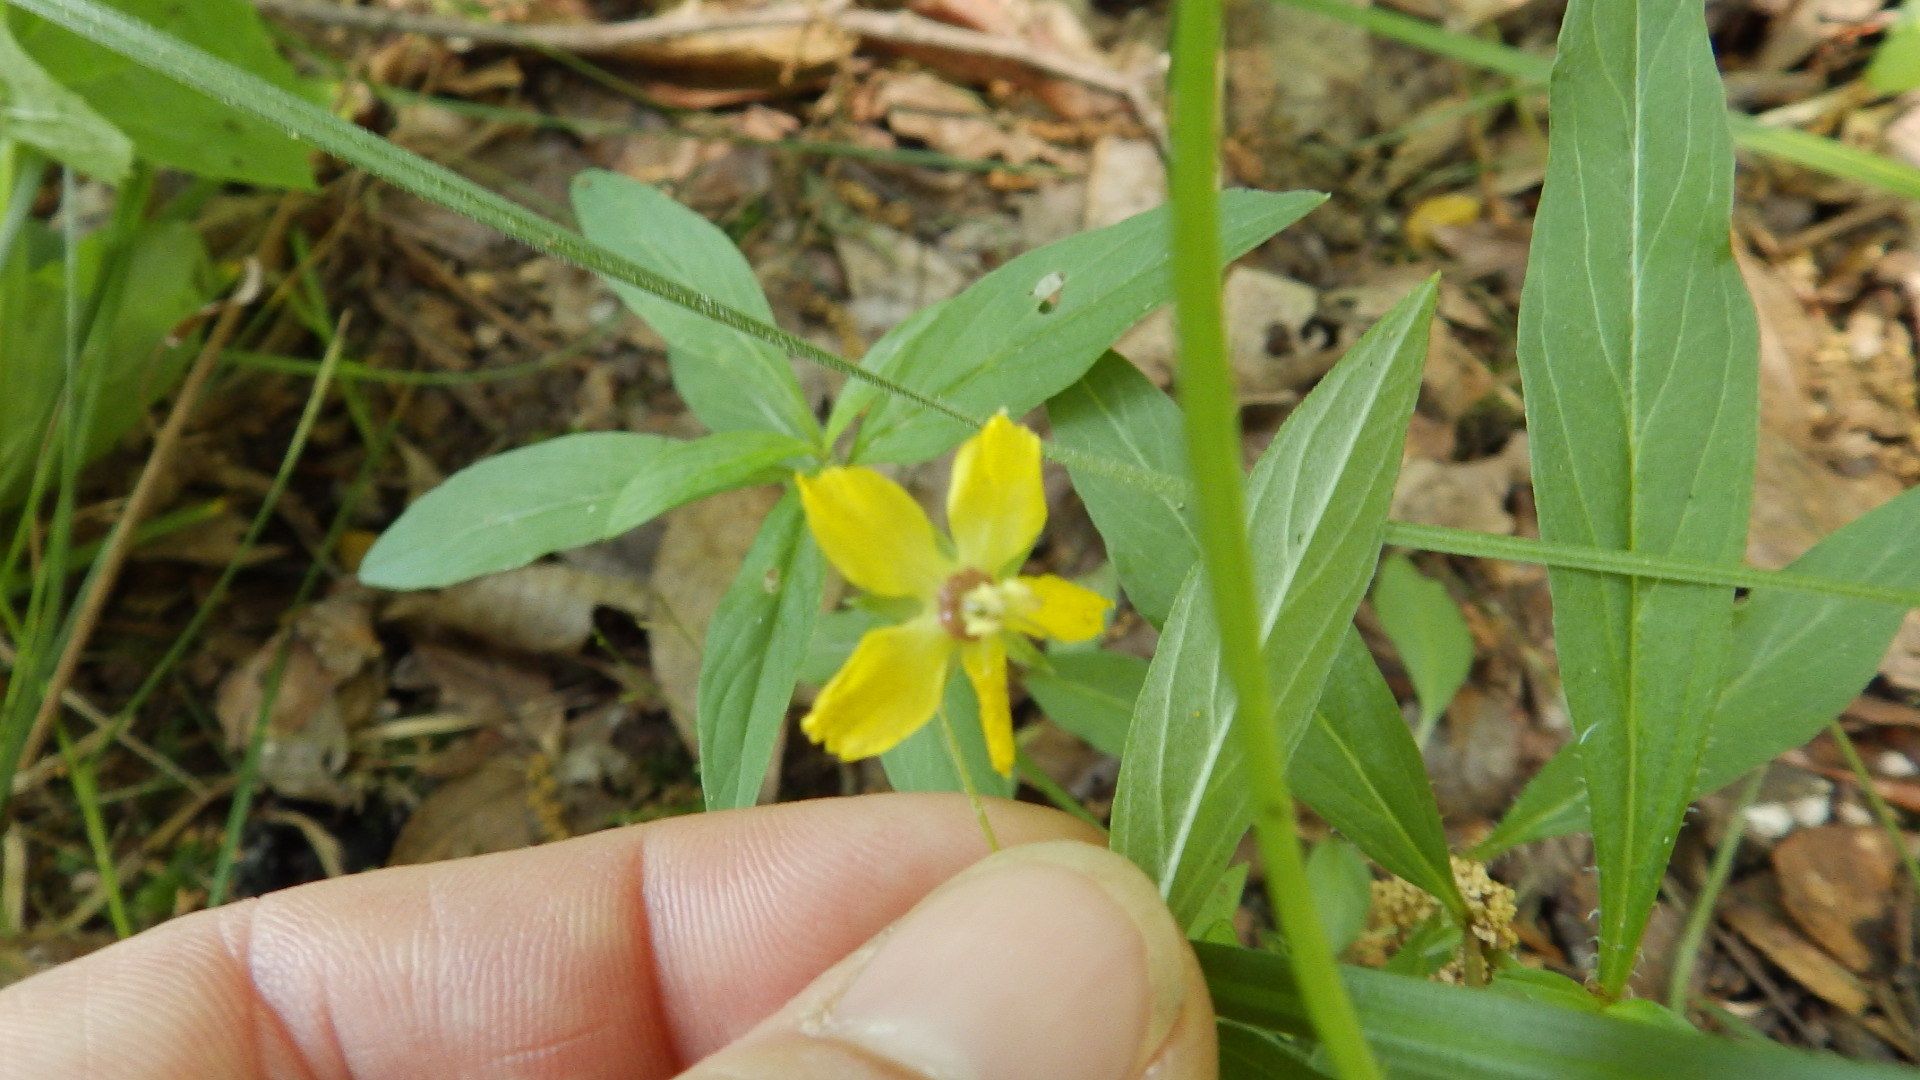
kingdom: Plantae
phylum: Tracheophyta
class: Magnoliopsida
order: Ericales
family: Primulaceae
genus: Lysimachia
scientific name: Lysimachia lanceolata
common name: Lance-leaved loosestrife
